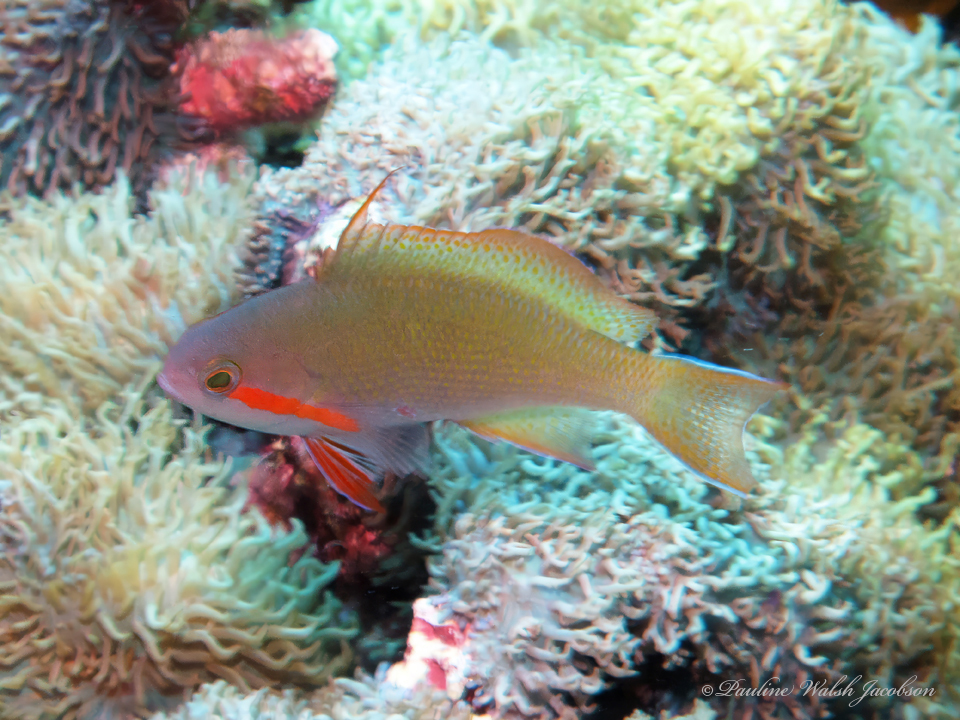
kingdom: Animalia
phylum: Chordata
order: Perciformes
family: Serranidae
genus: Pseudanthias
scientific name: Pseudanthias huchtii
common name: Pacific basslet
